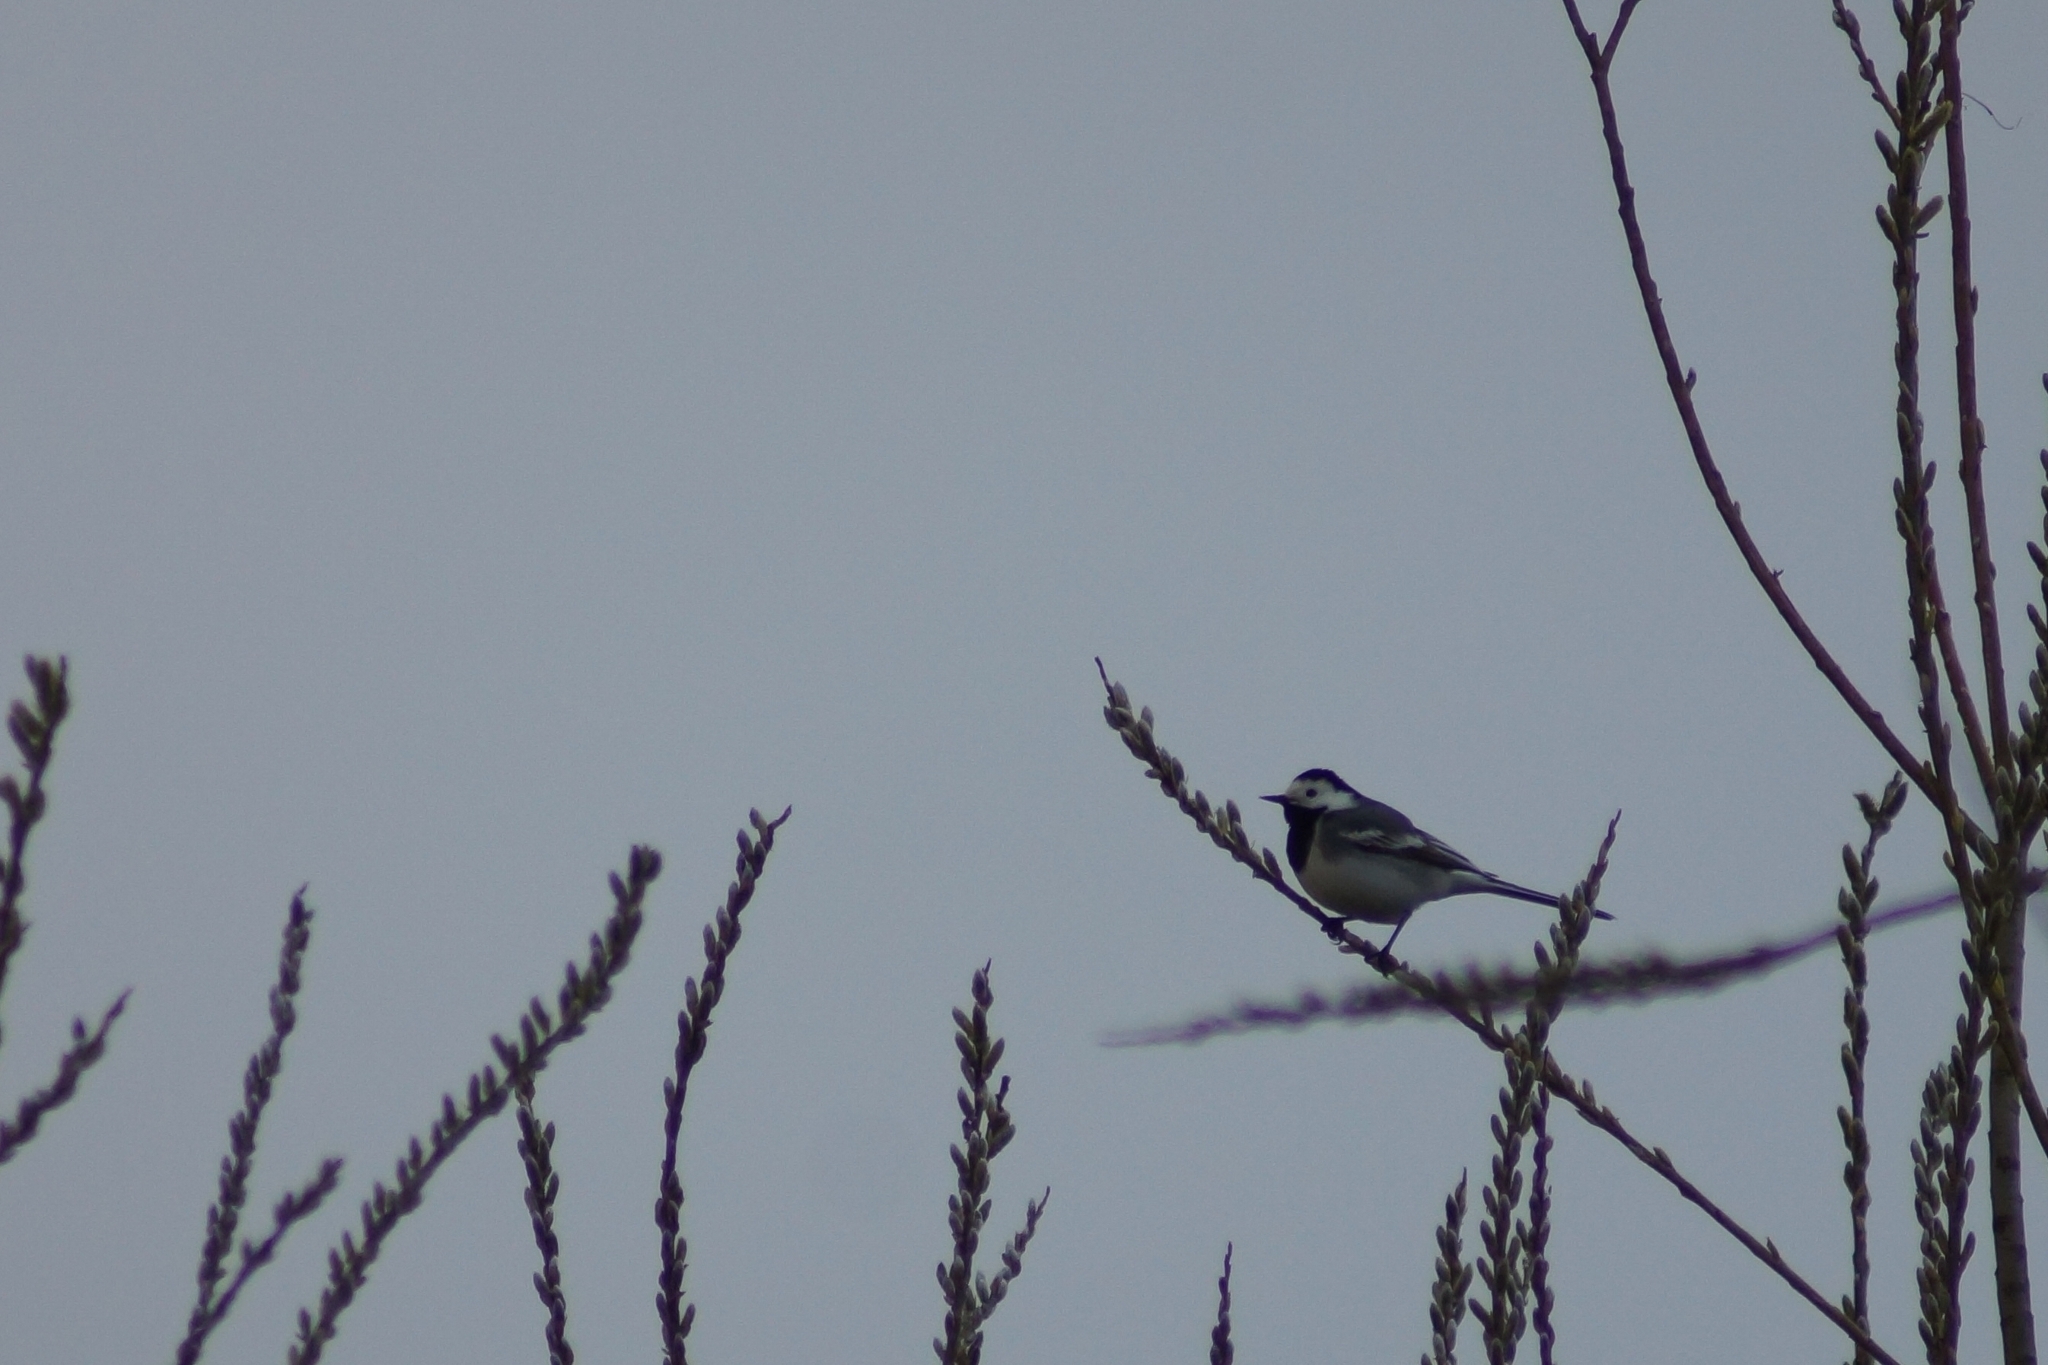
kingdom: Animalia
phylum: Chordata
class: Aves
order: Passeriformes
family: Motacillidae
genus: Motacilla
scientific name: Motacilla alba
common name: White wagtail
